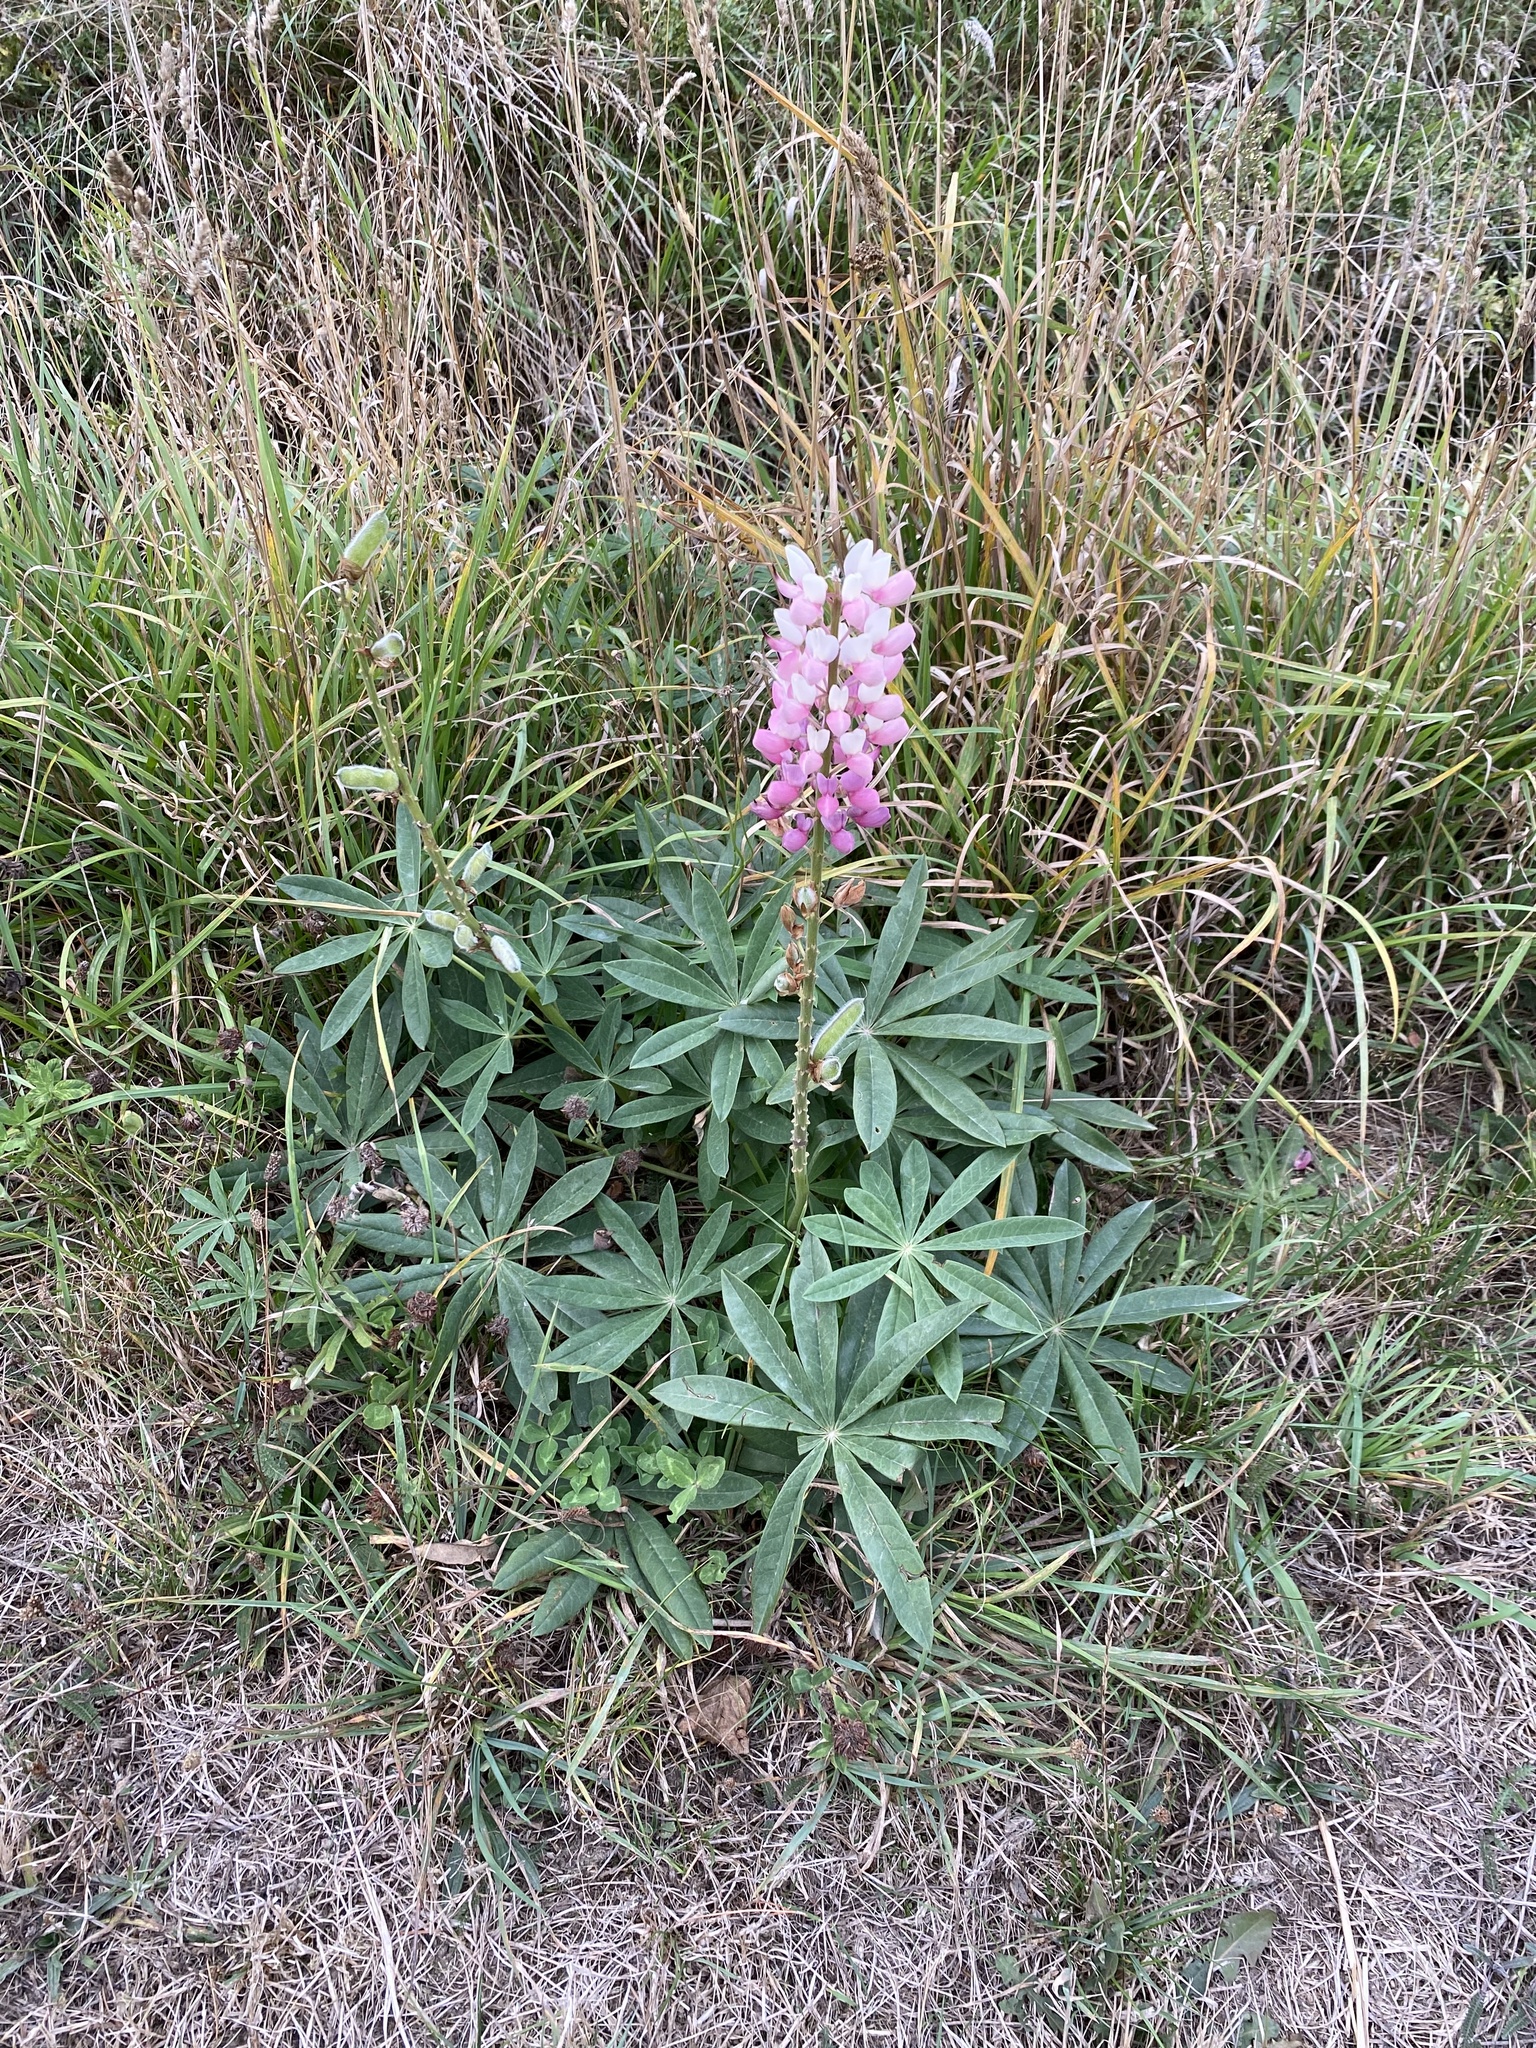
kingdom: Plantae
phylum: Tracheophyta
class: Magnoliopsida
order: Fabales
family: Fabaceae
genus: Lupinus
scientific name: Lupinus polyphyllus
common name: Garden lupin
